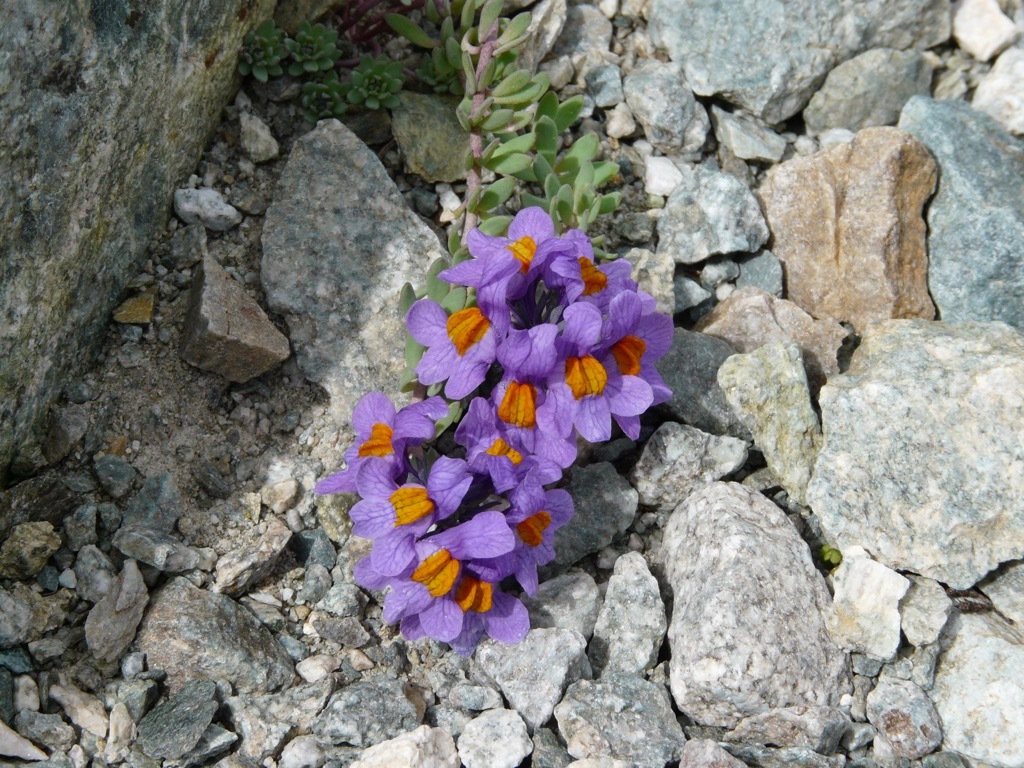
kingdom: Plantae
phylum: Tracheophyta
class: Magnoliopsida
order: Lamiales
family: Plantaginaceae
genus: Linaria
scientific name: Linaria alpina
